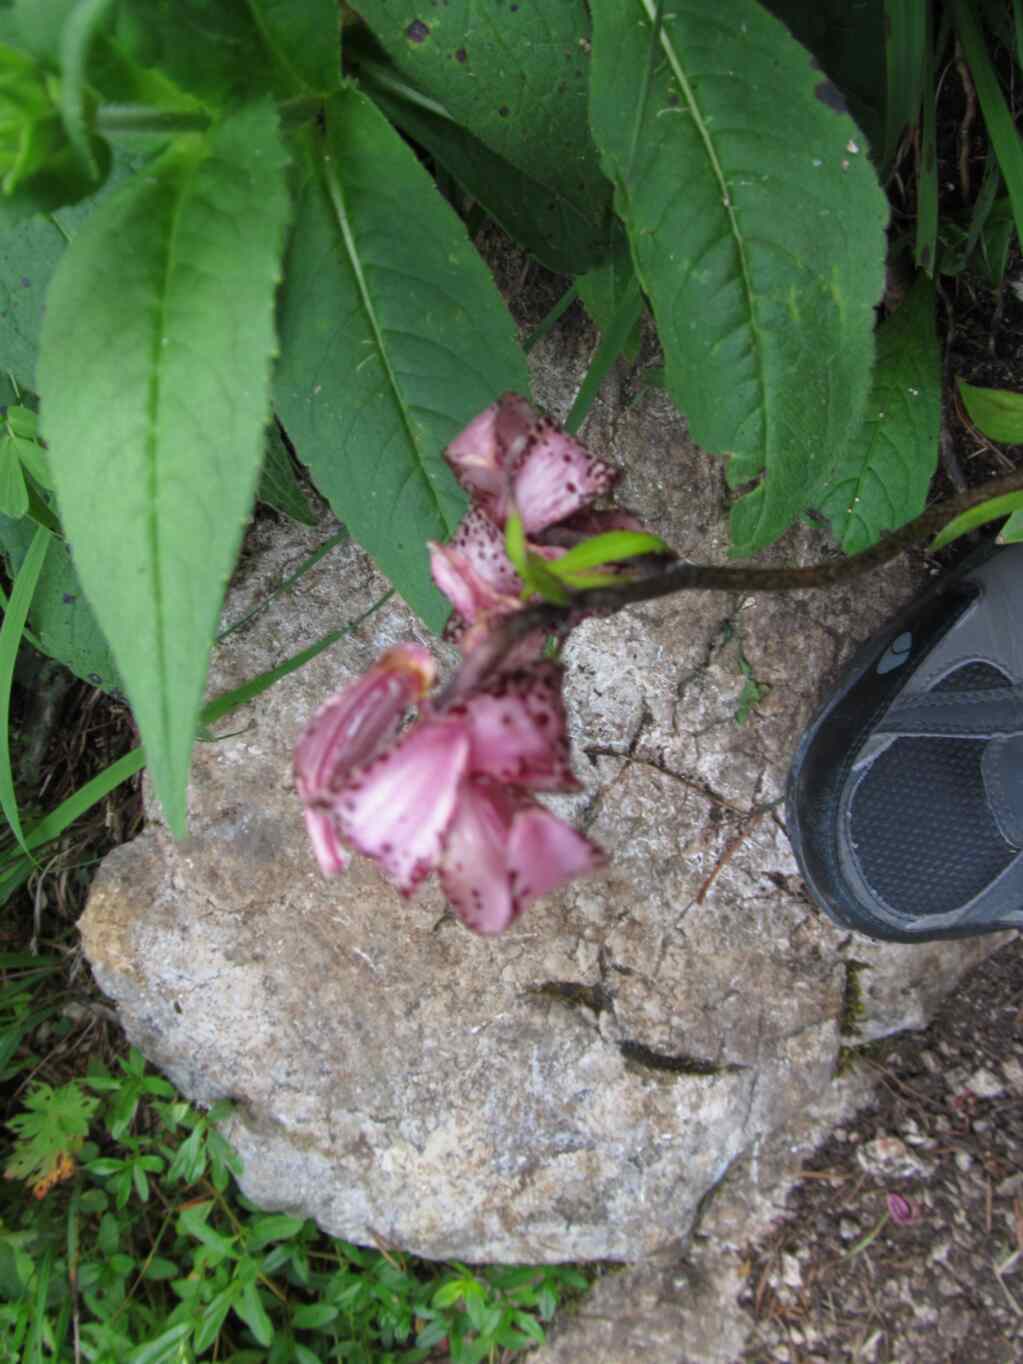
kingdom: Plantae
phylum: Tracheophyta
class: Liliopsida
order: Liliales
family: Liliaceae
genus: Lilium
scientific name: Lilium martagon
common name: Martagon lily
